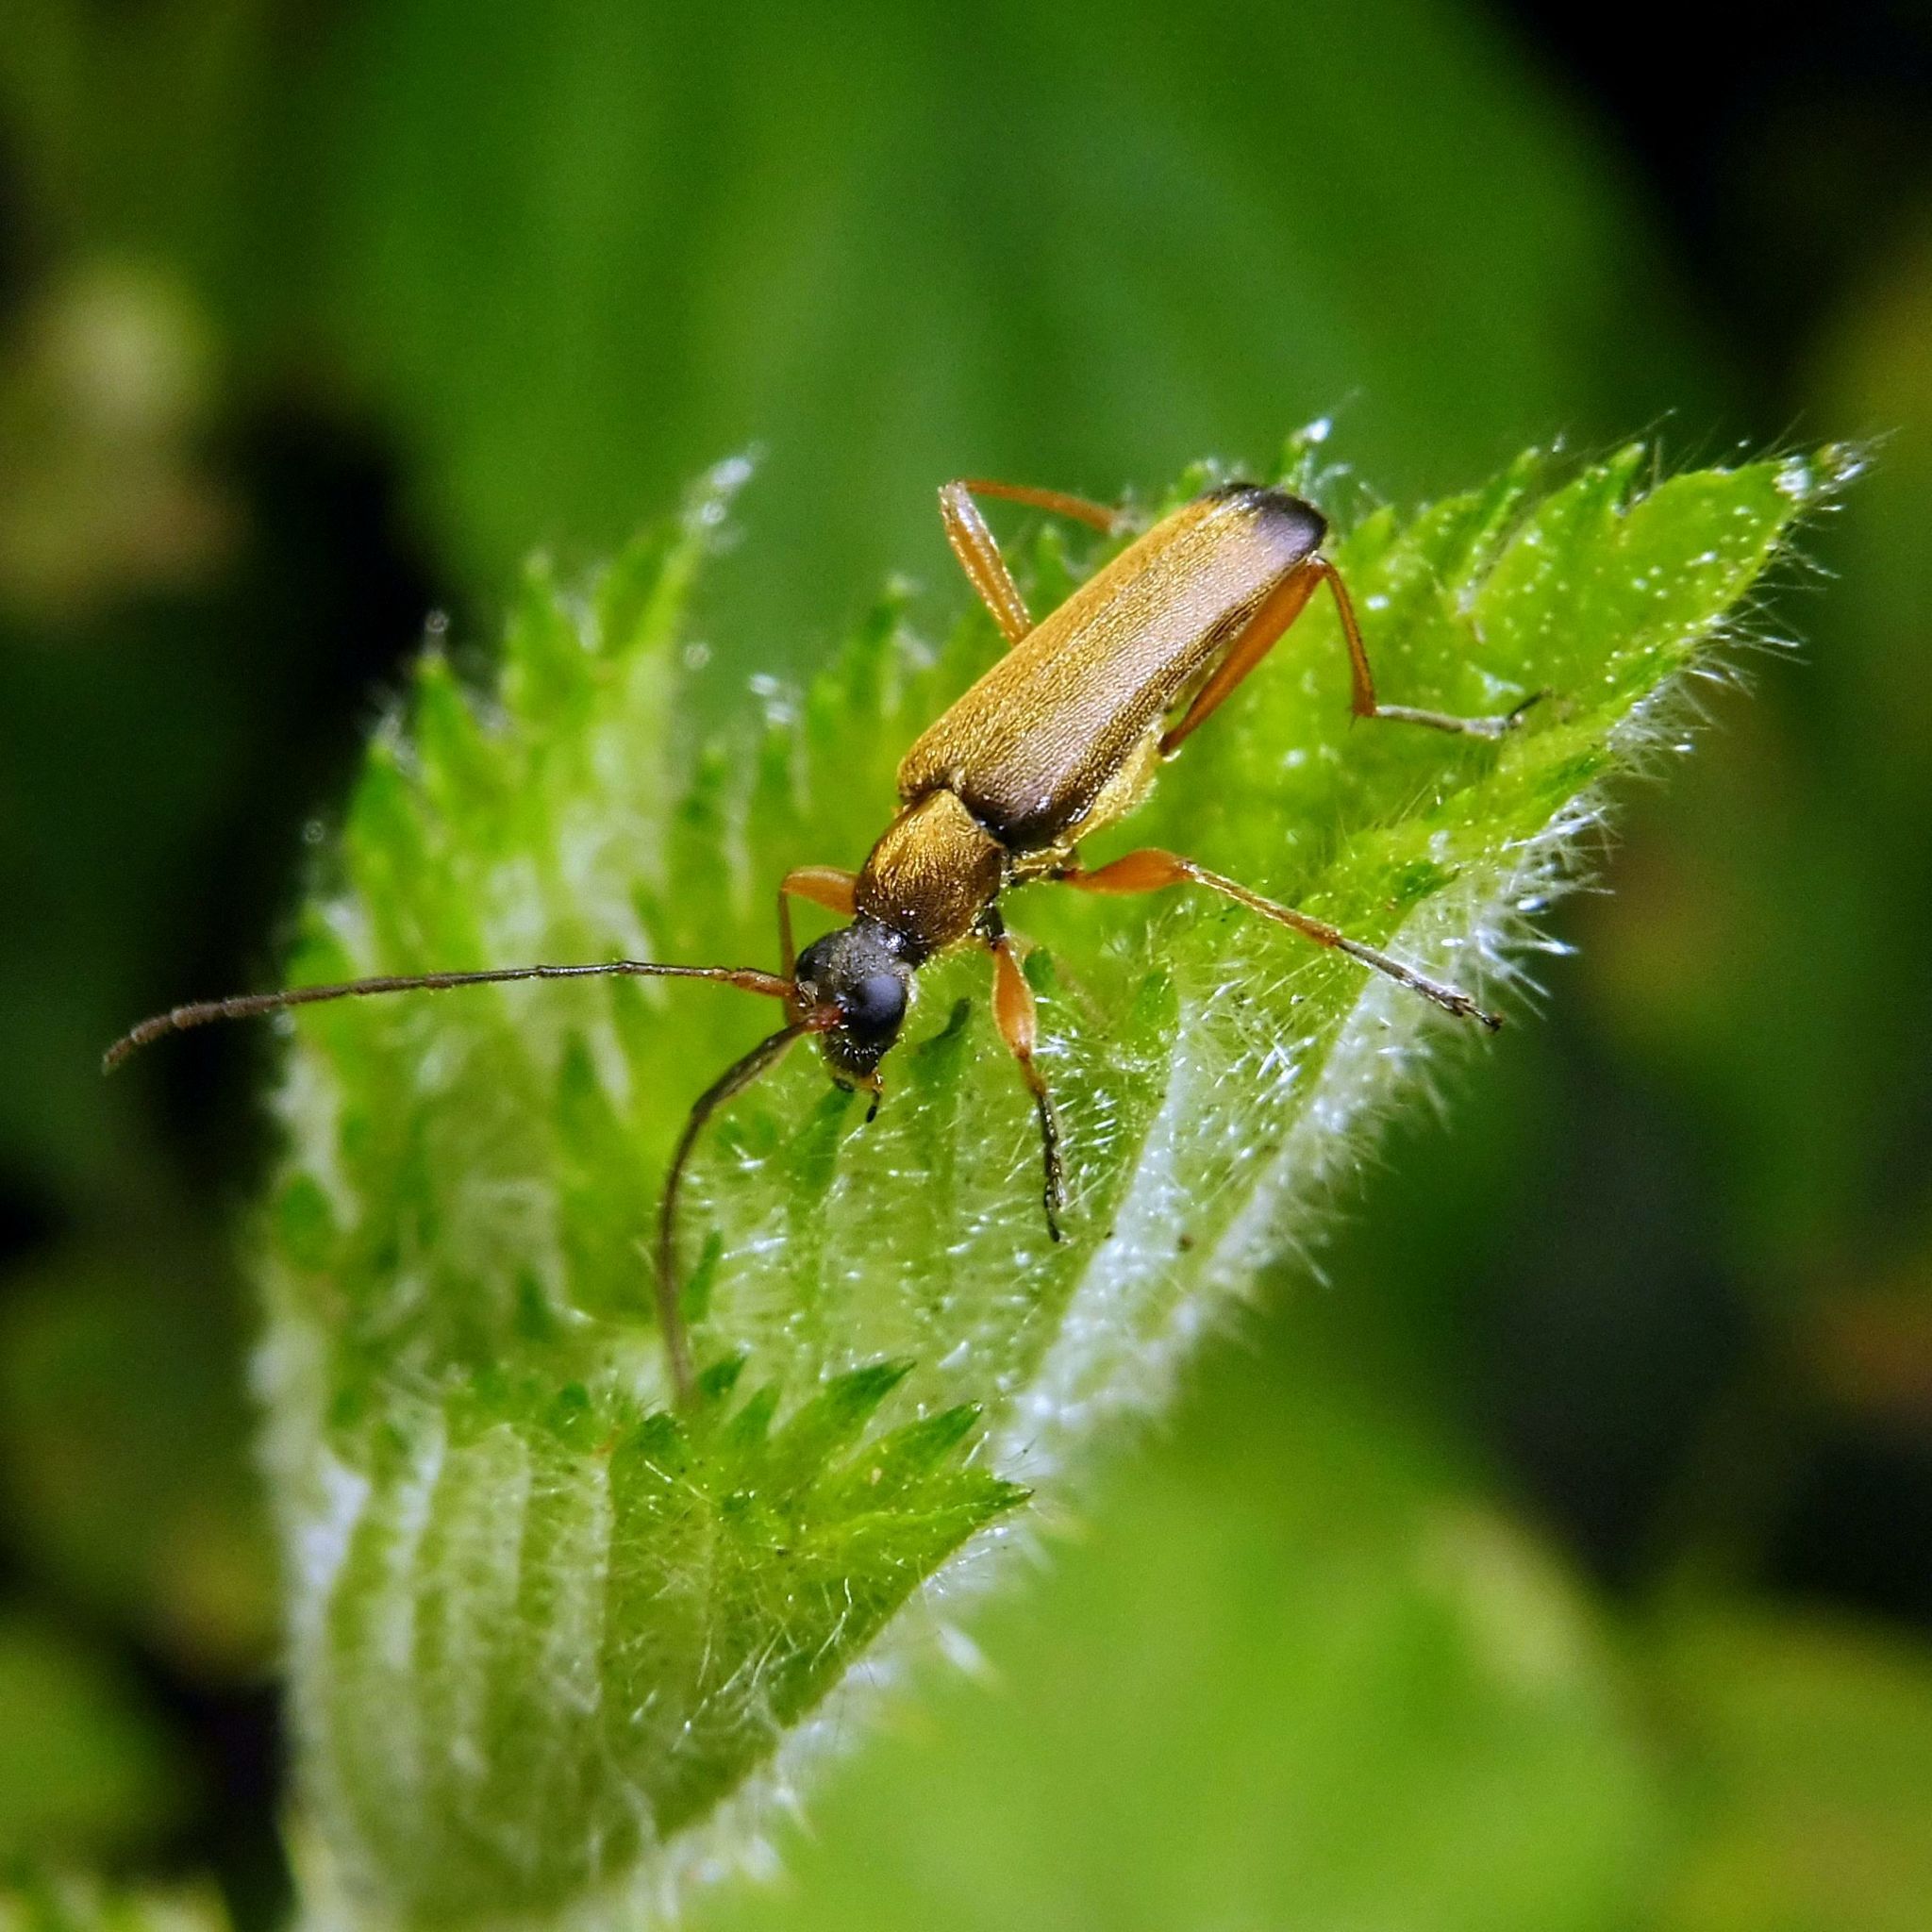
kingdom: Animalia
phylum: Arthropoda
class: Insecta
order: Coleoptera
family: Cerambycidae
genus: Grammoptera
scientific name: Grammoptera ustulata
